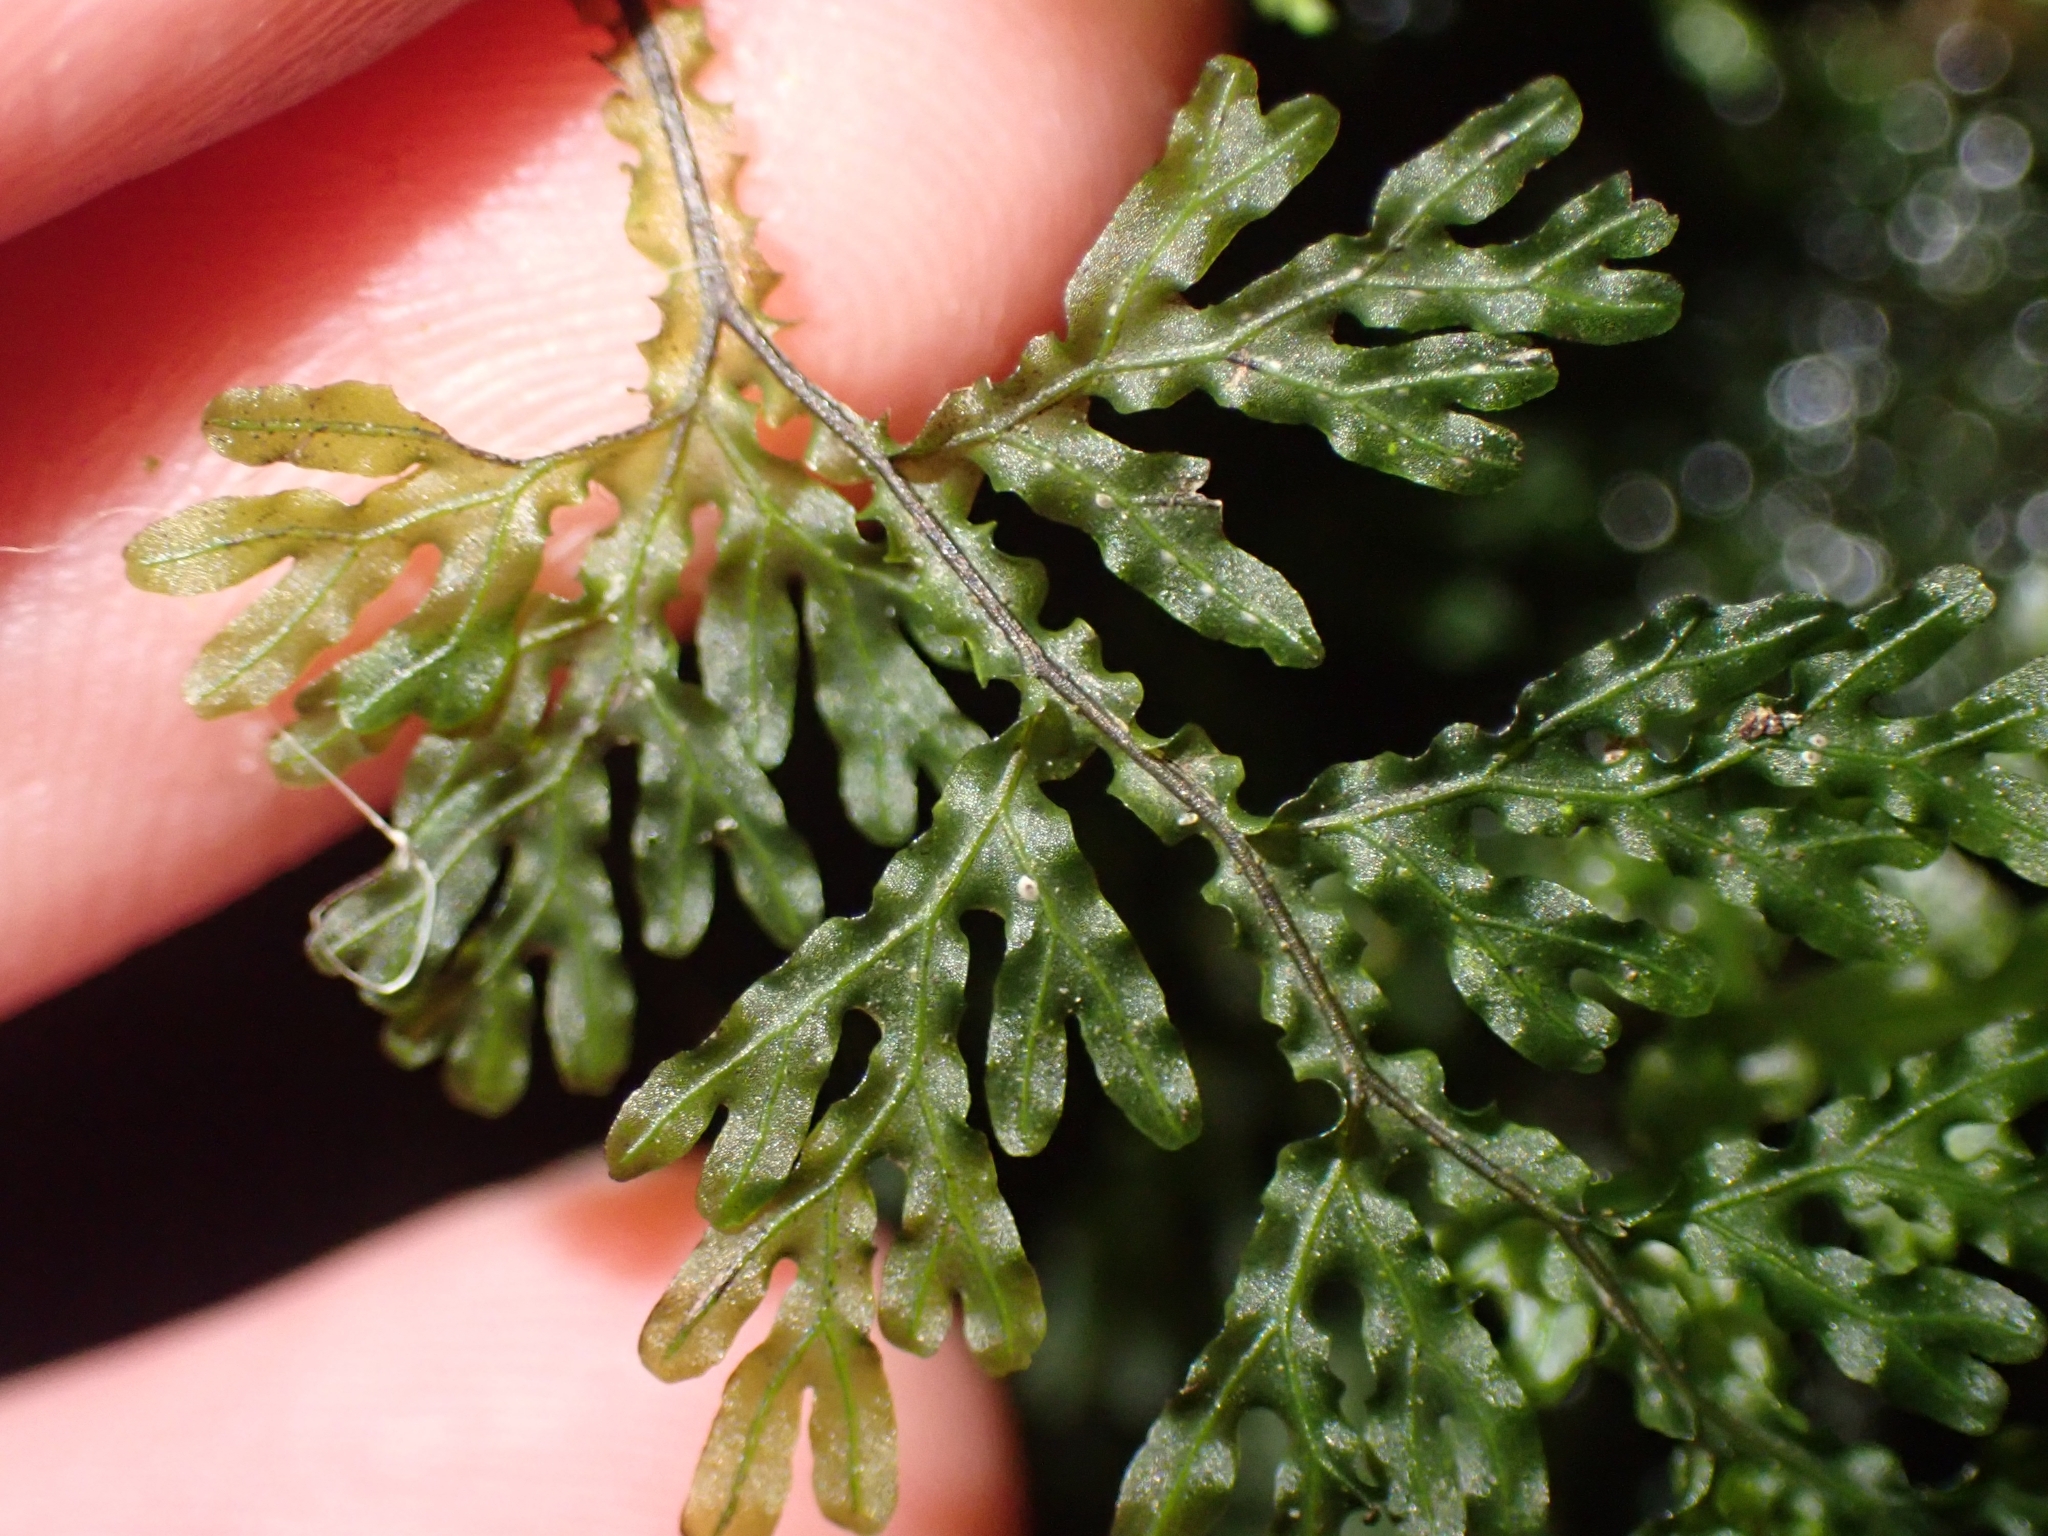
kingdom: Plantae
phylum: Tracheophyta
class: Polypodiopsida
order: Hymenophyllales
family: Hymenophyllaceae
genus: Hymenophyllum
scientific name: Hymenophyllum flexuosum
